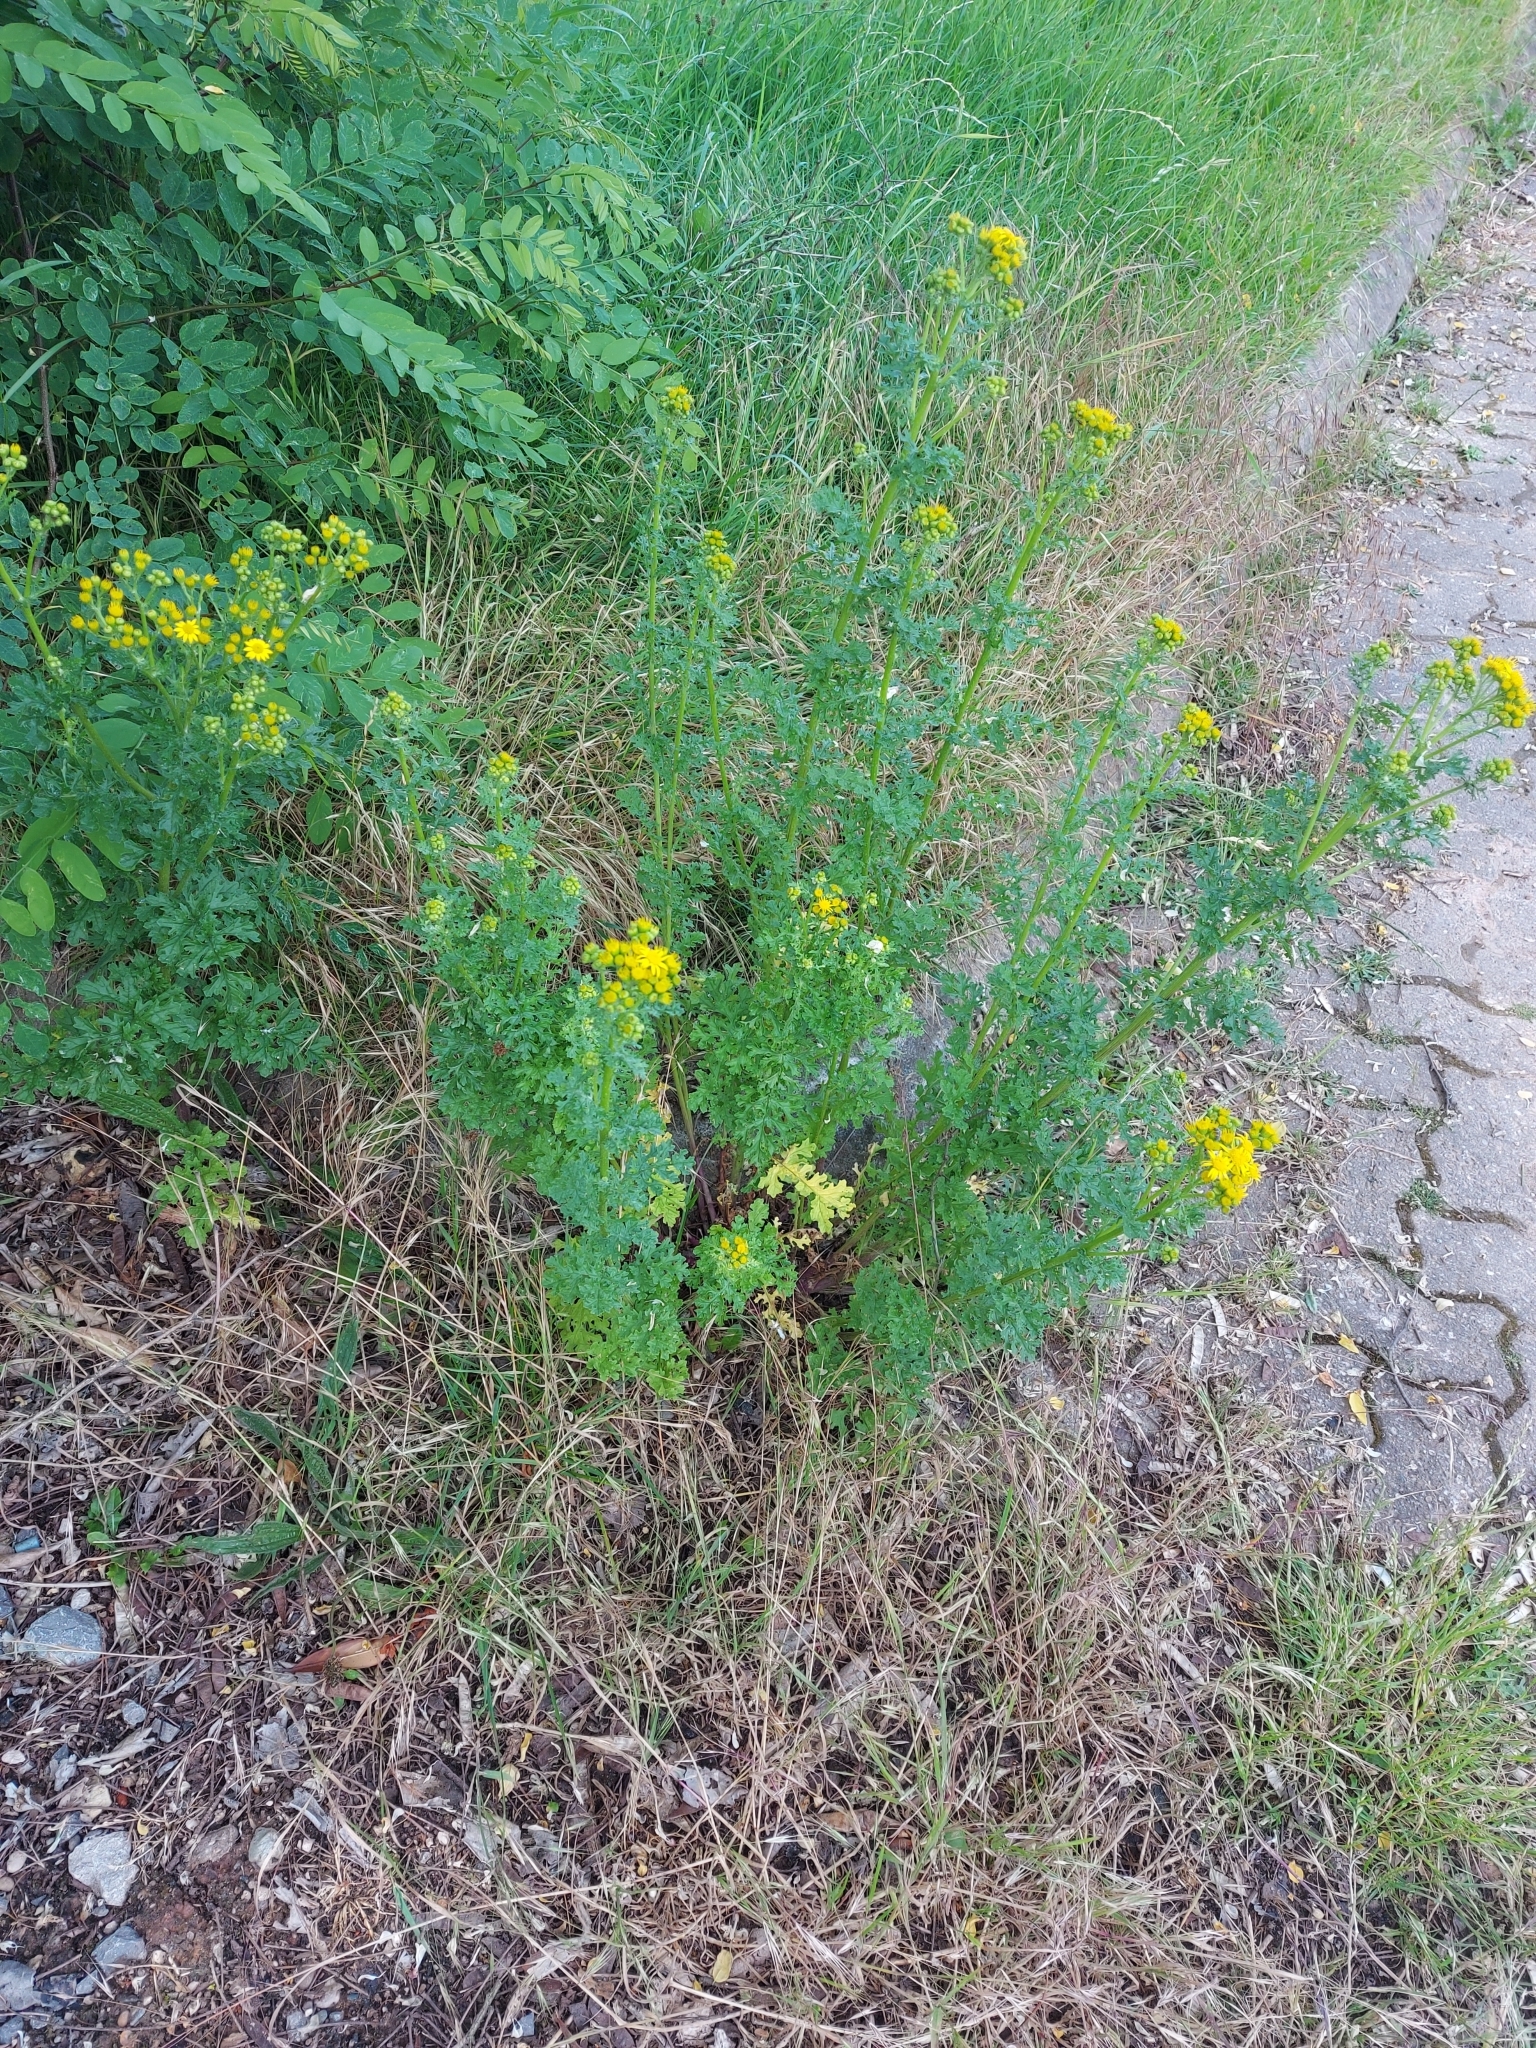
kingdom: Plantae
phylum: Tracheophyta
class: Magnoliopsida
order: Asterales
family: Asteraceae
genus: Jacobaea
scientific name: Jacobaea vulgaris
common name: Stinking willie
